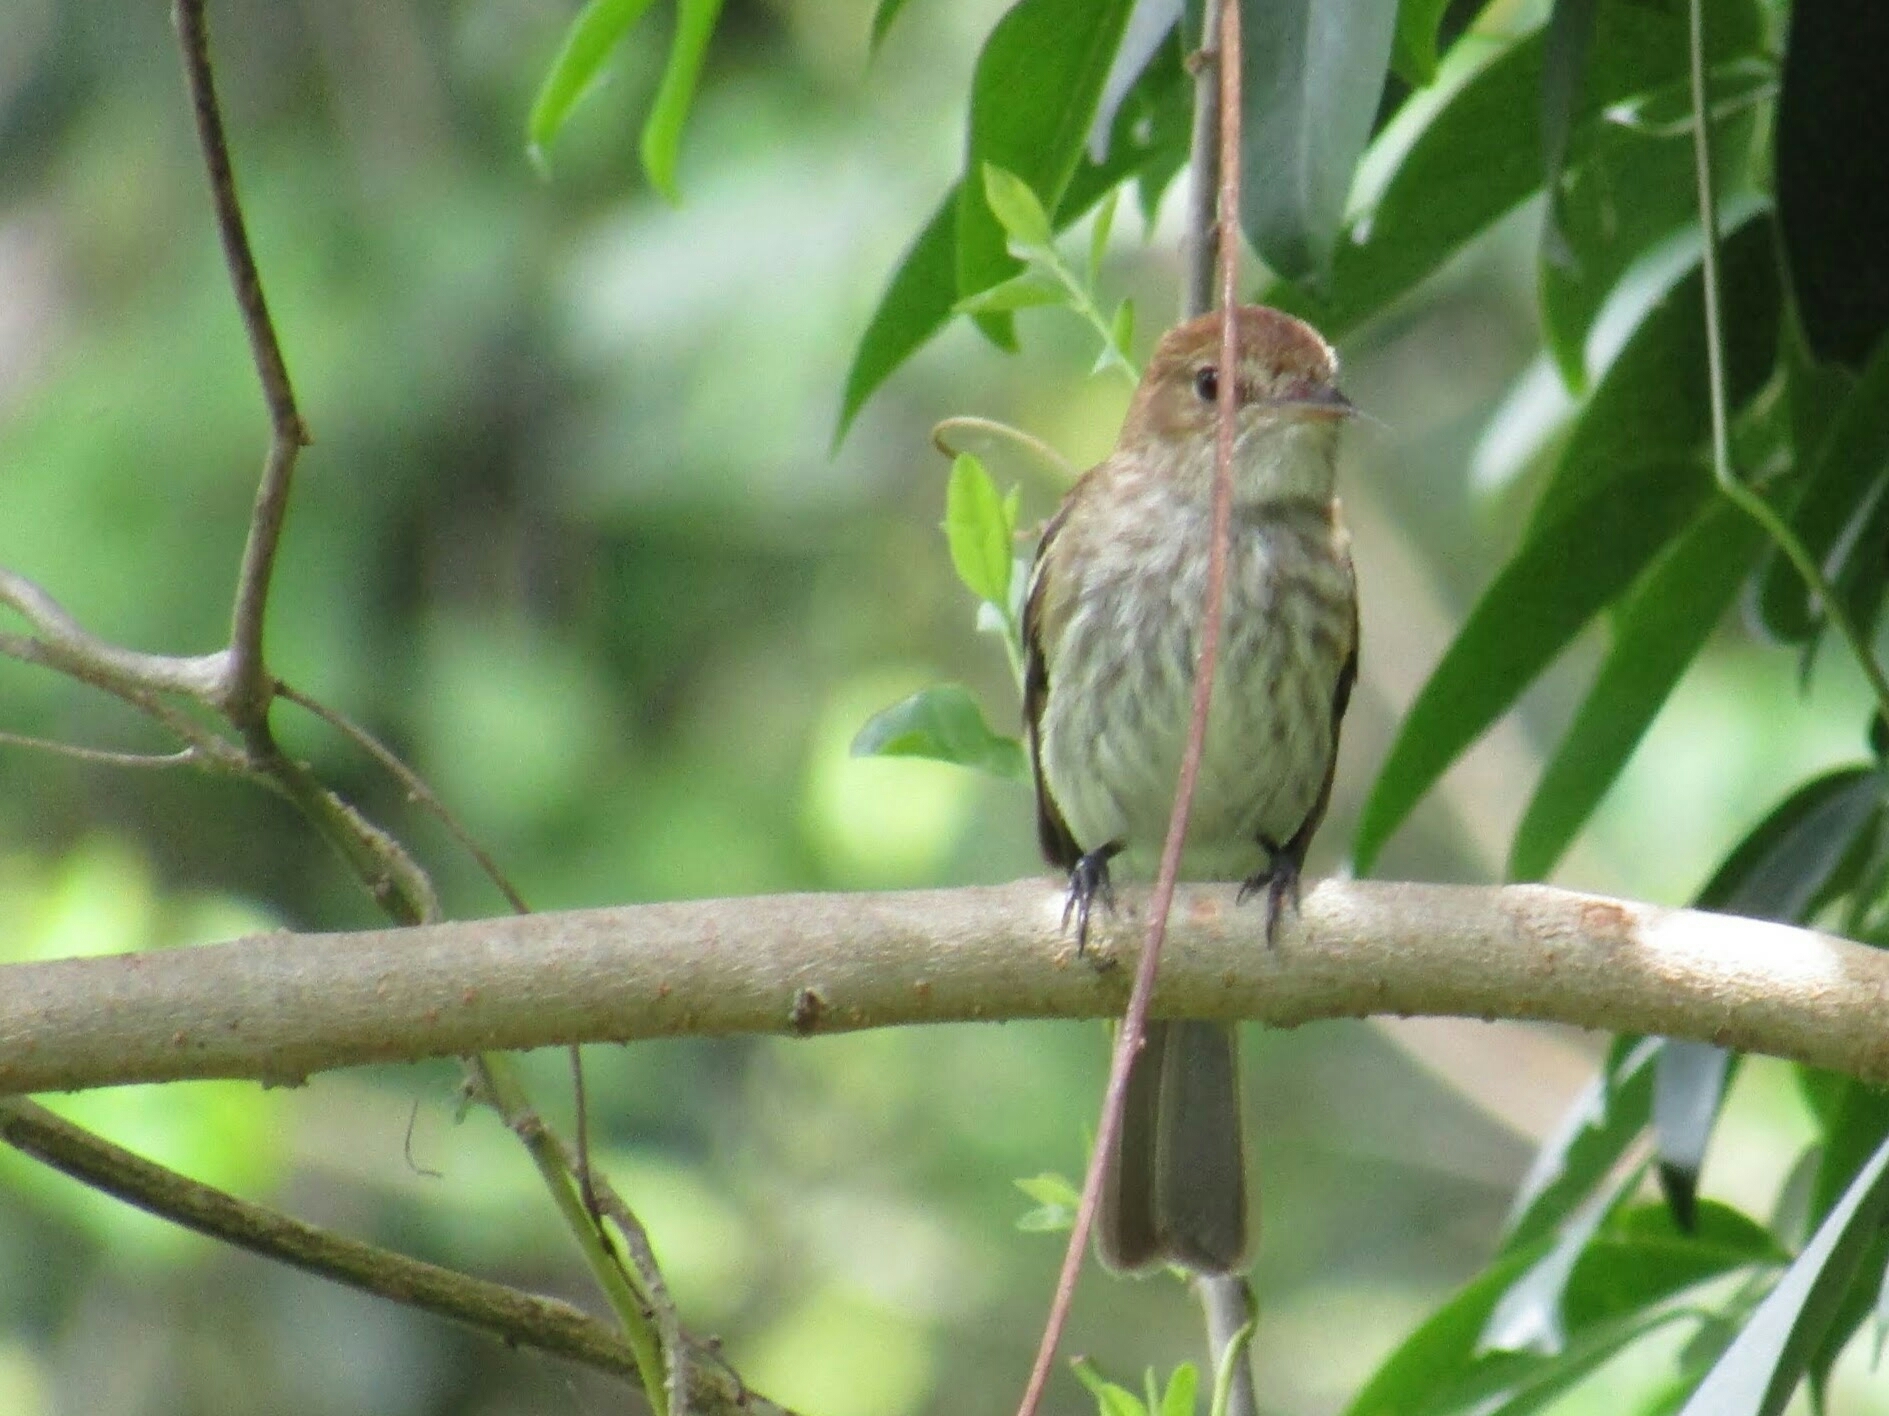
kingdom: Animalia
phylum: Chordata
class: Aves
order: Passeriformes
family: Tyrannidae
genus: Myiophobus
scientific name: Myiophobus fasciatus
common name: Bran-colored flycatcher
